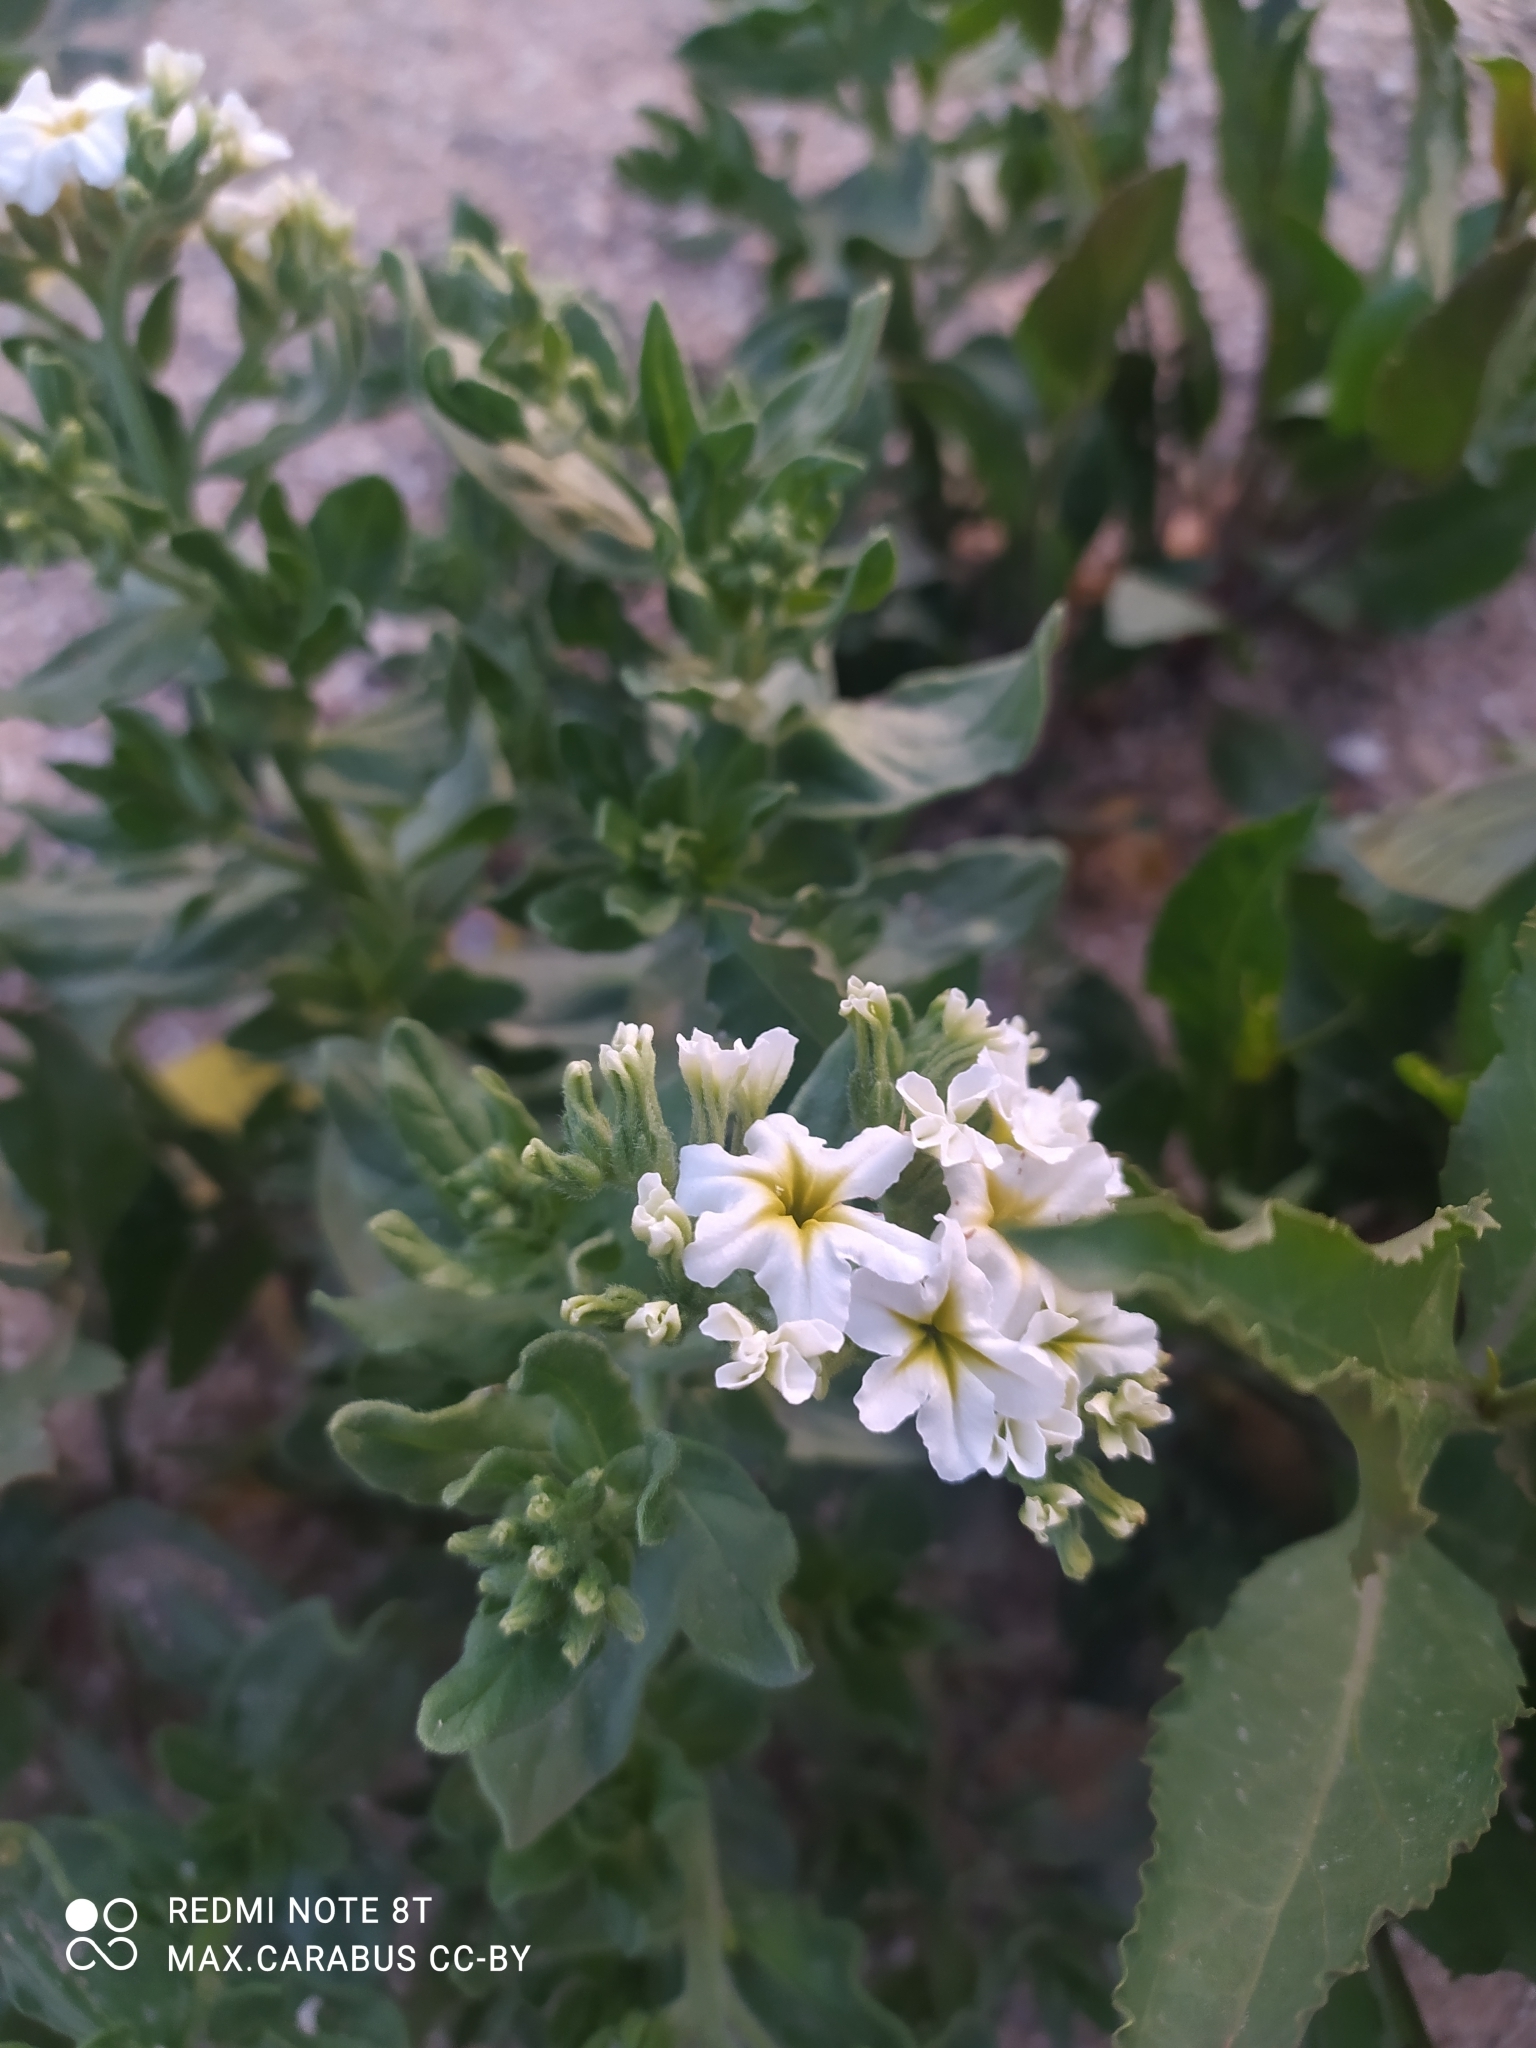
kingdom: Plantae
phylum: Tracheophyta
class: Magnoliopsida
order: Boraginales
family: Heliotropiaceae
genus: Tournefortia
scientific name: Tournefortia sibirica
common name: Siberian sea rosemary
